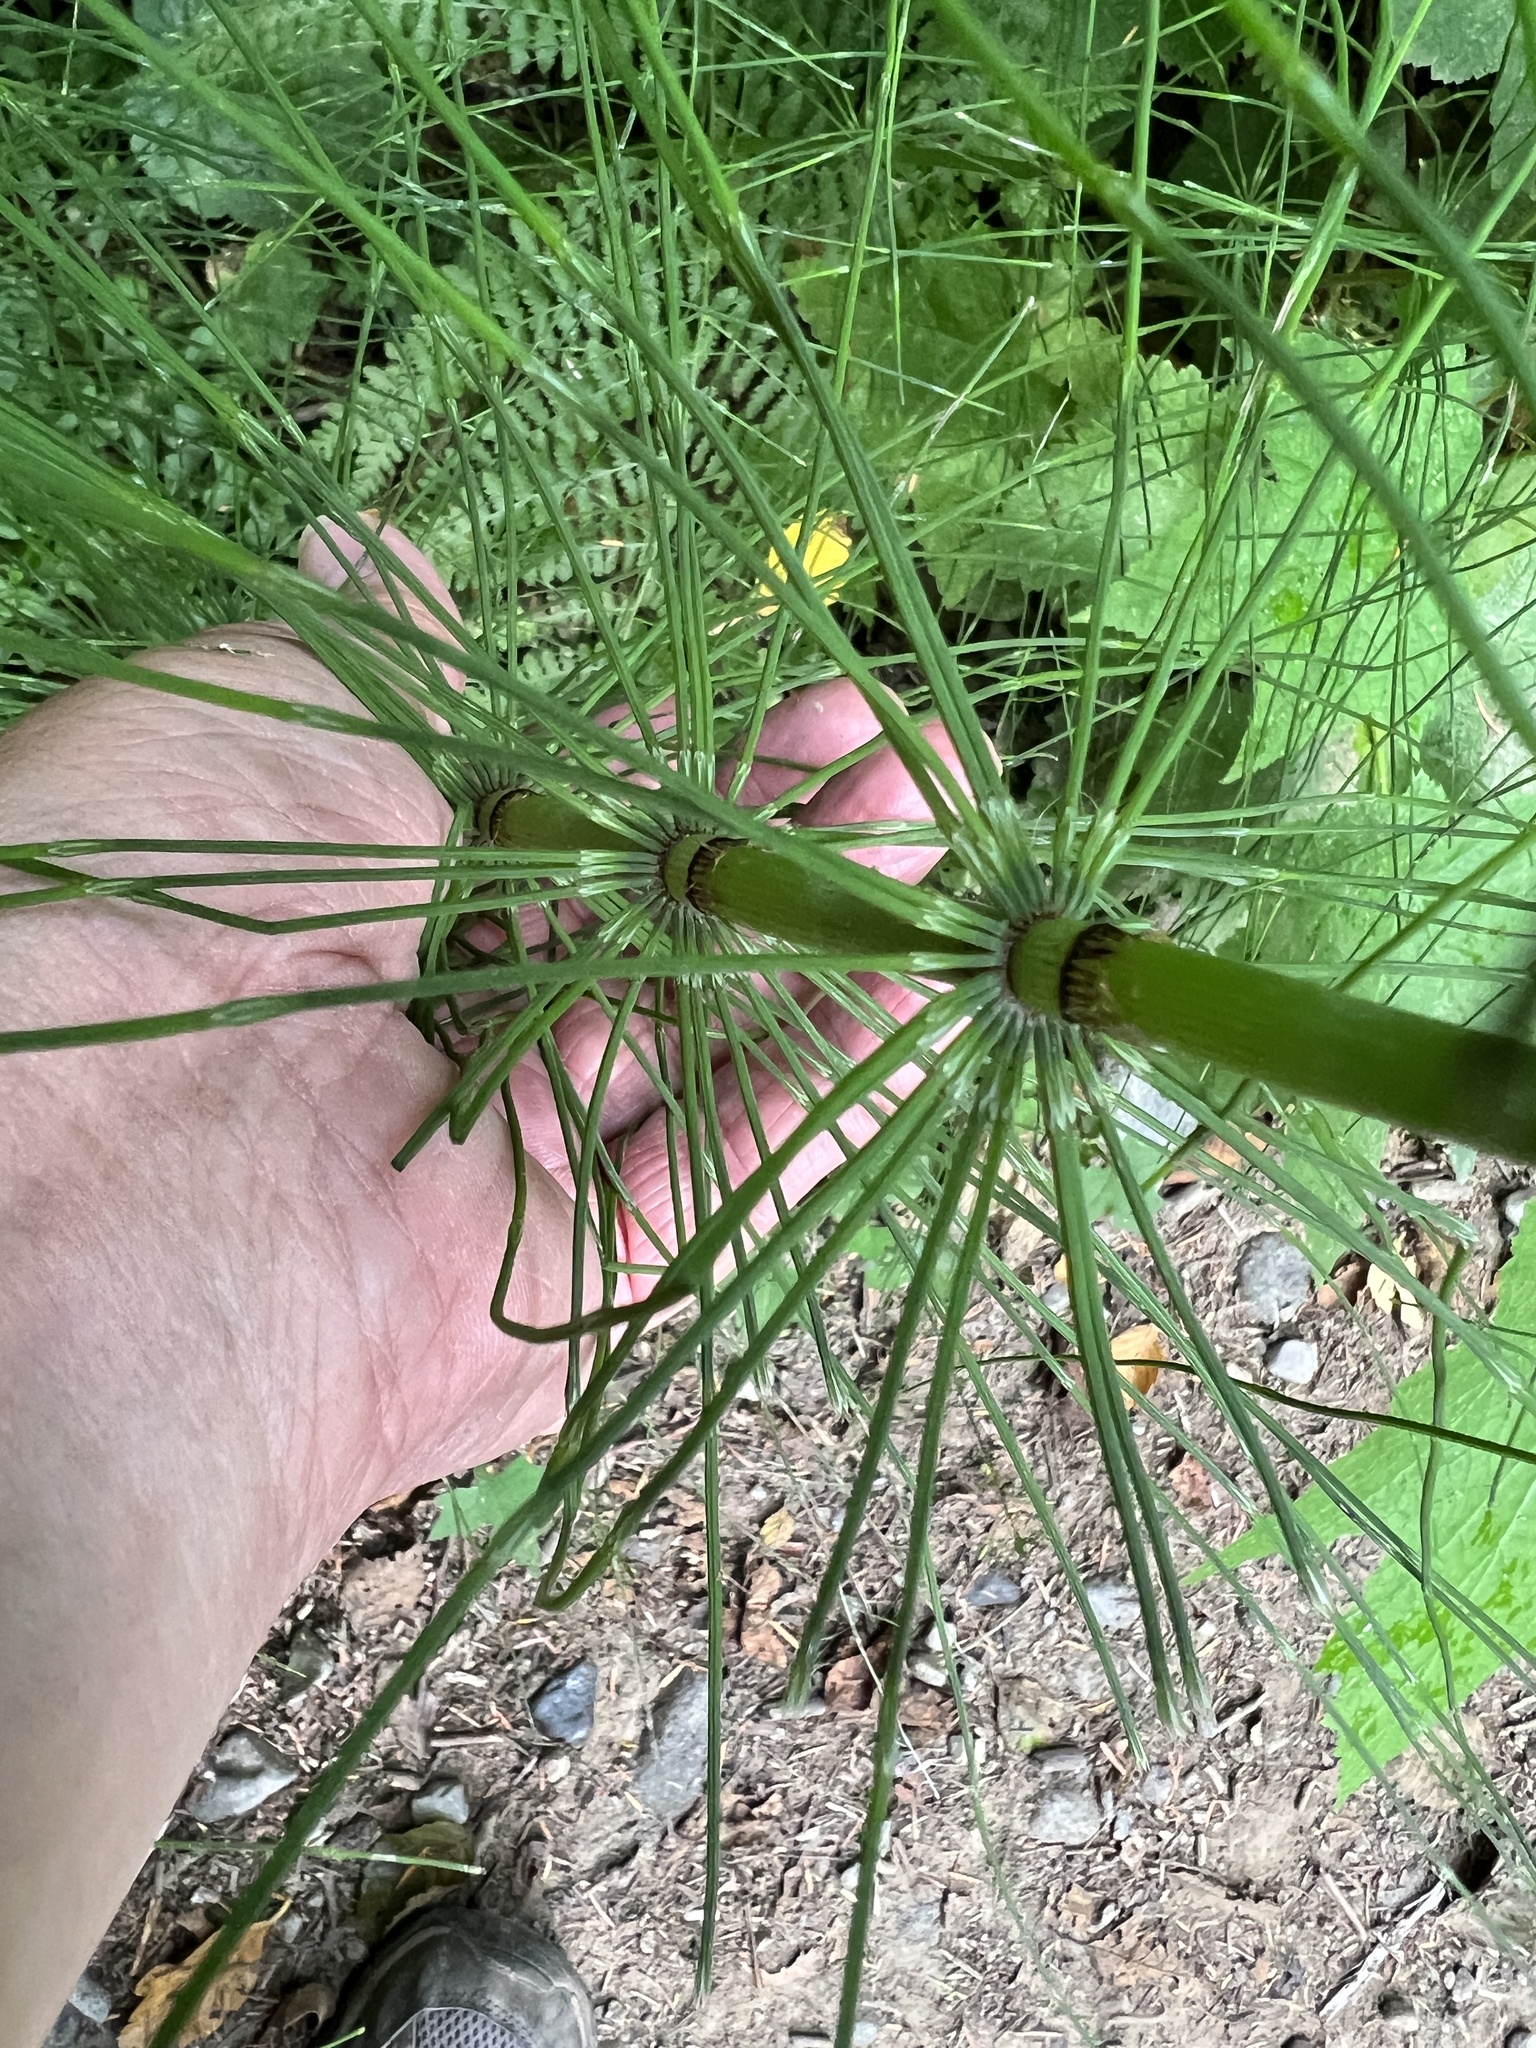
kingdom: Plantae
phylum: Tracheophyta
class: Polypodiopsida
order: Equisetales
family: Equisetaceae
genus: Equisetum
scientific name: Equisetum braunii
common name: Braun's horsetail
